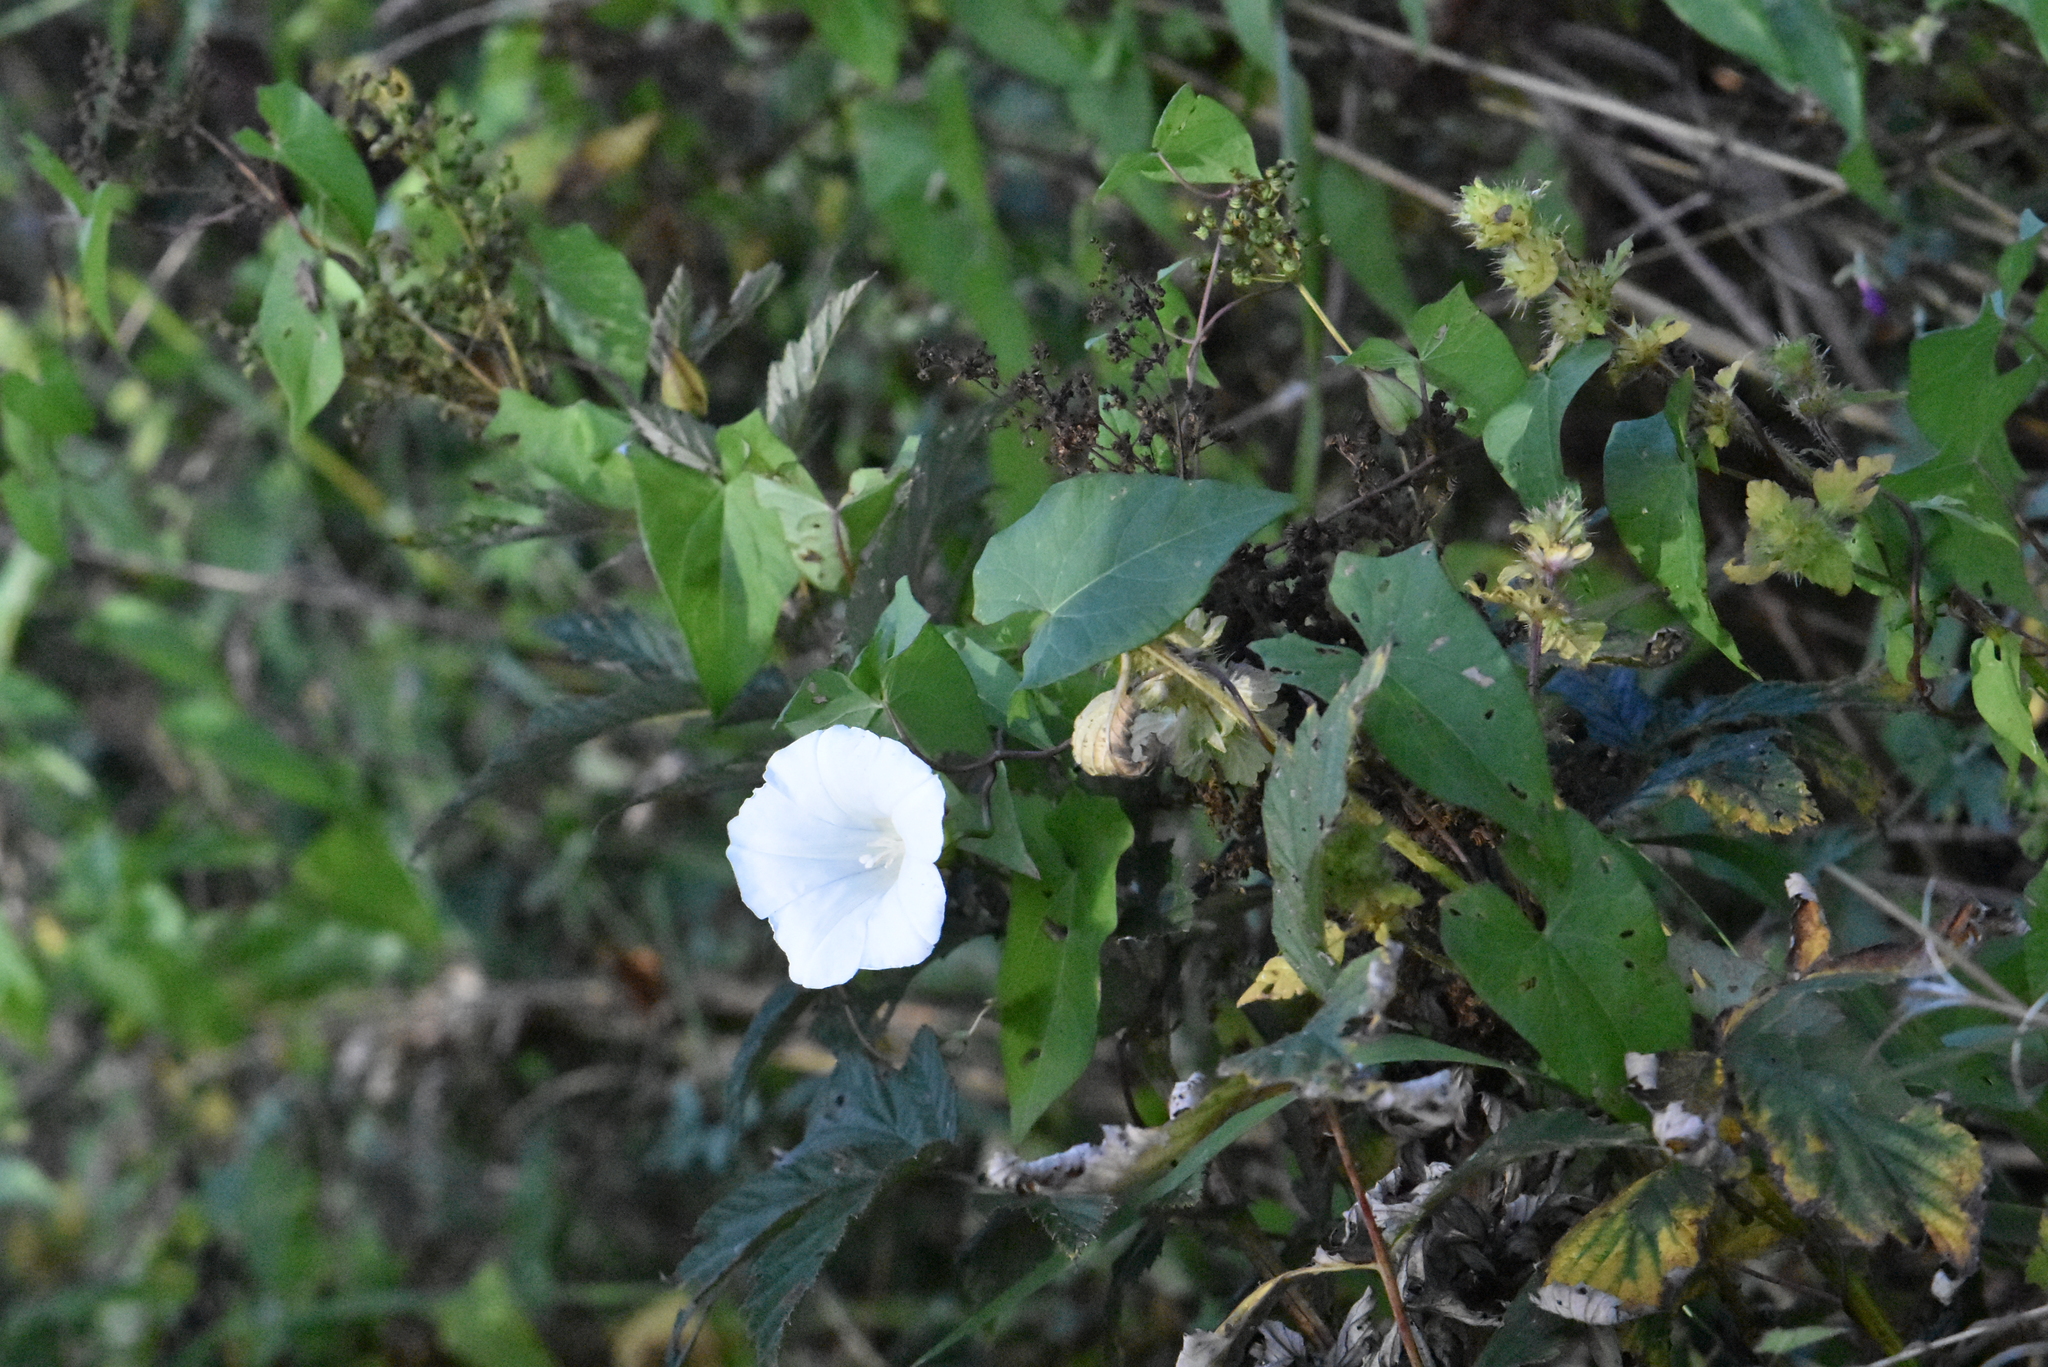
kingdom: Plantae
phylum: Tracheophyta
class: Magnoliopsida
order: Solanales
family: Convolvulaceae
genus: Calystegia
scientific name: Calystegia sepium
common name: Hedge bindweed
